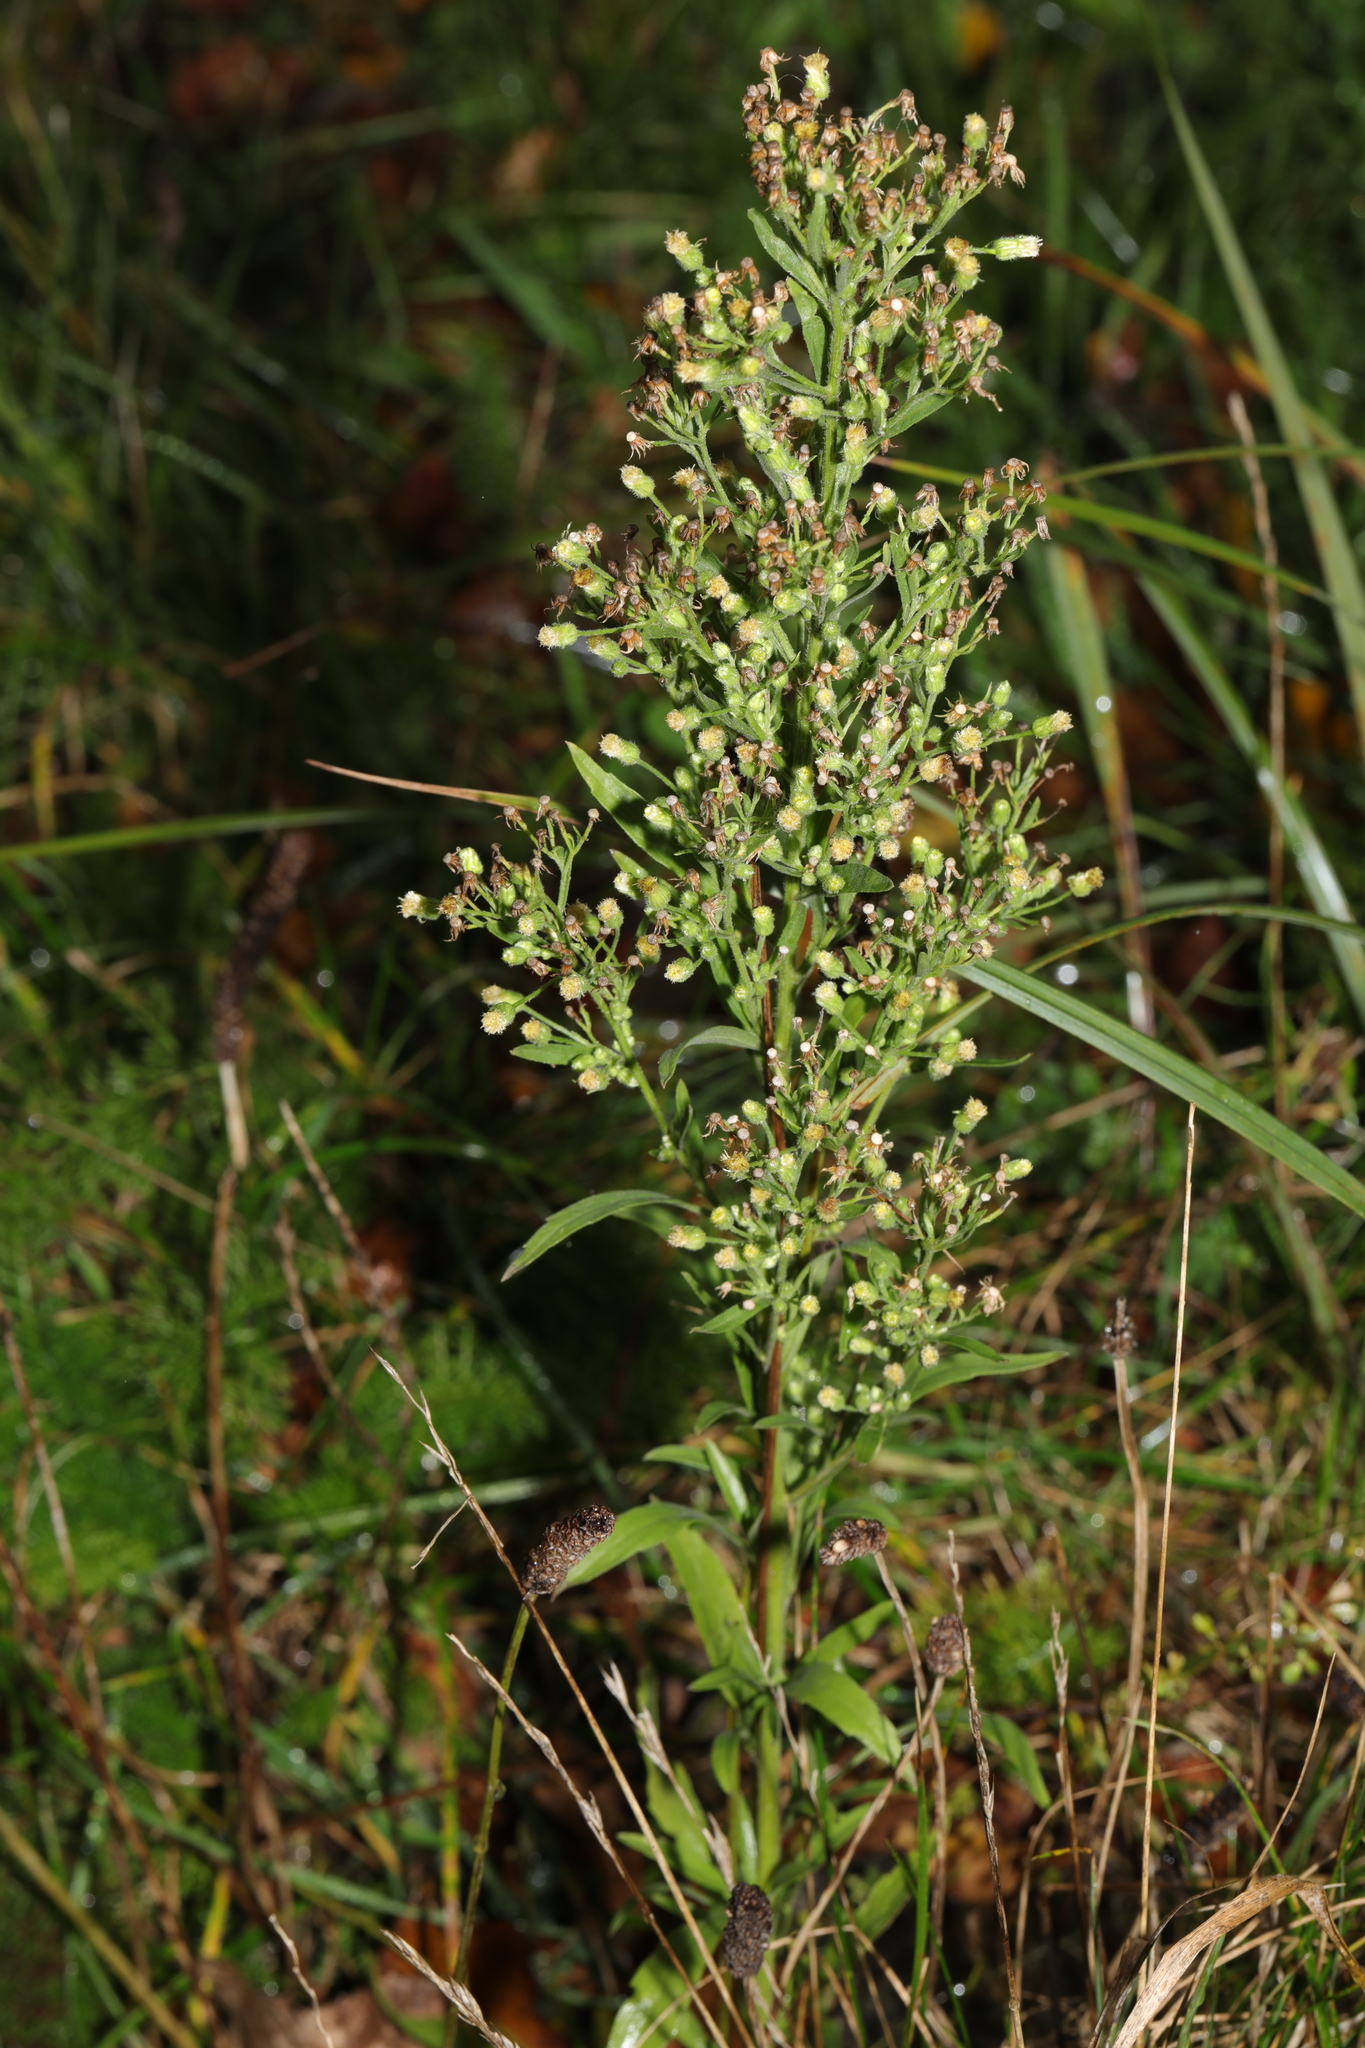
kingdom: Plantae
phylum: Tracheophyta
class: Magnoliopsida
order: Asterales
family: Asteraceae
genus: Erigeron
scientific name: Erigeron sumatrensis
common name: Daisy
